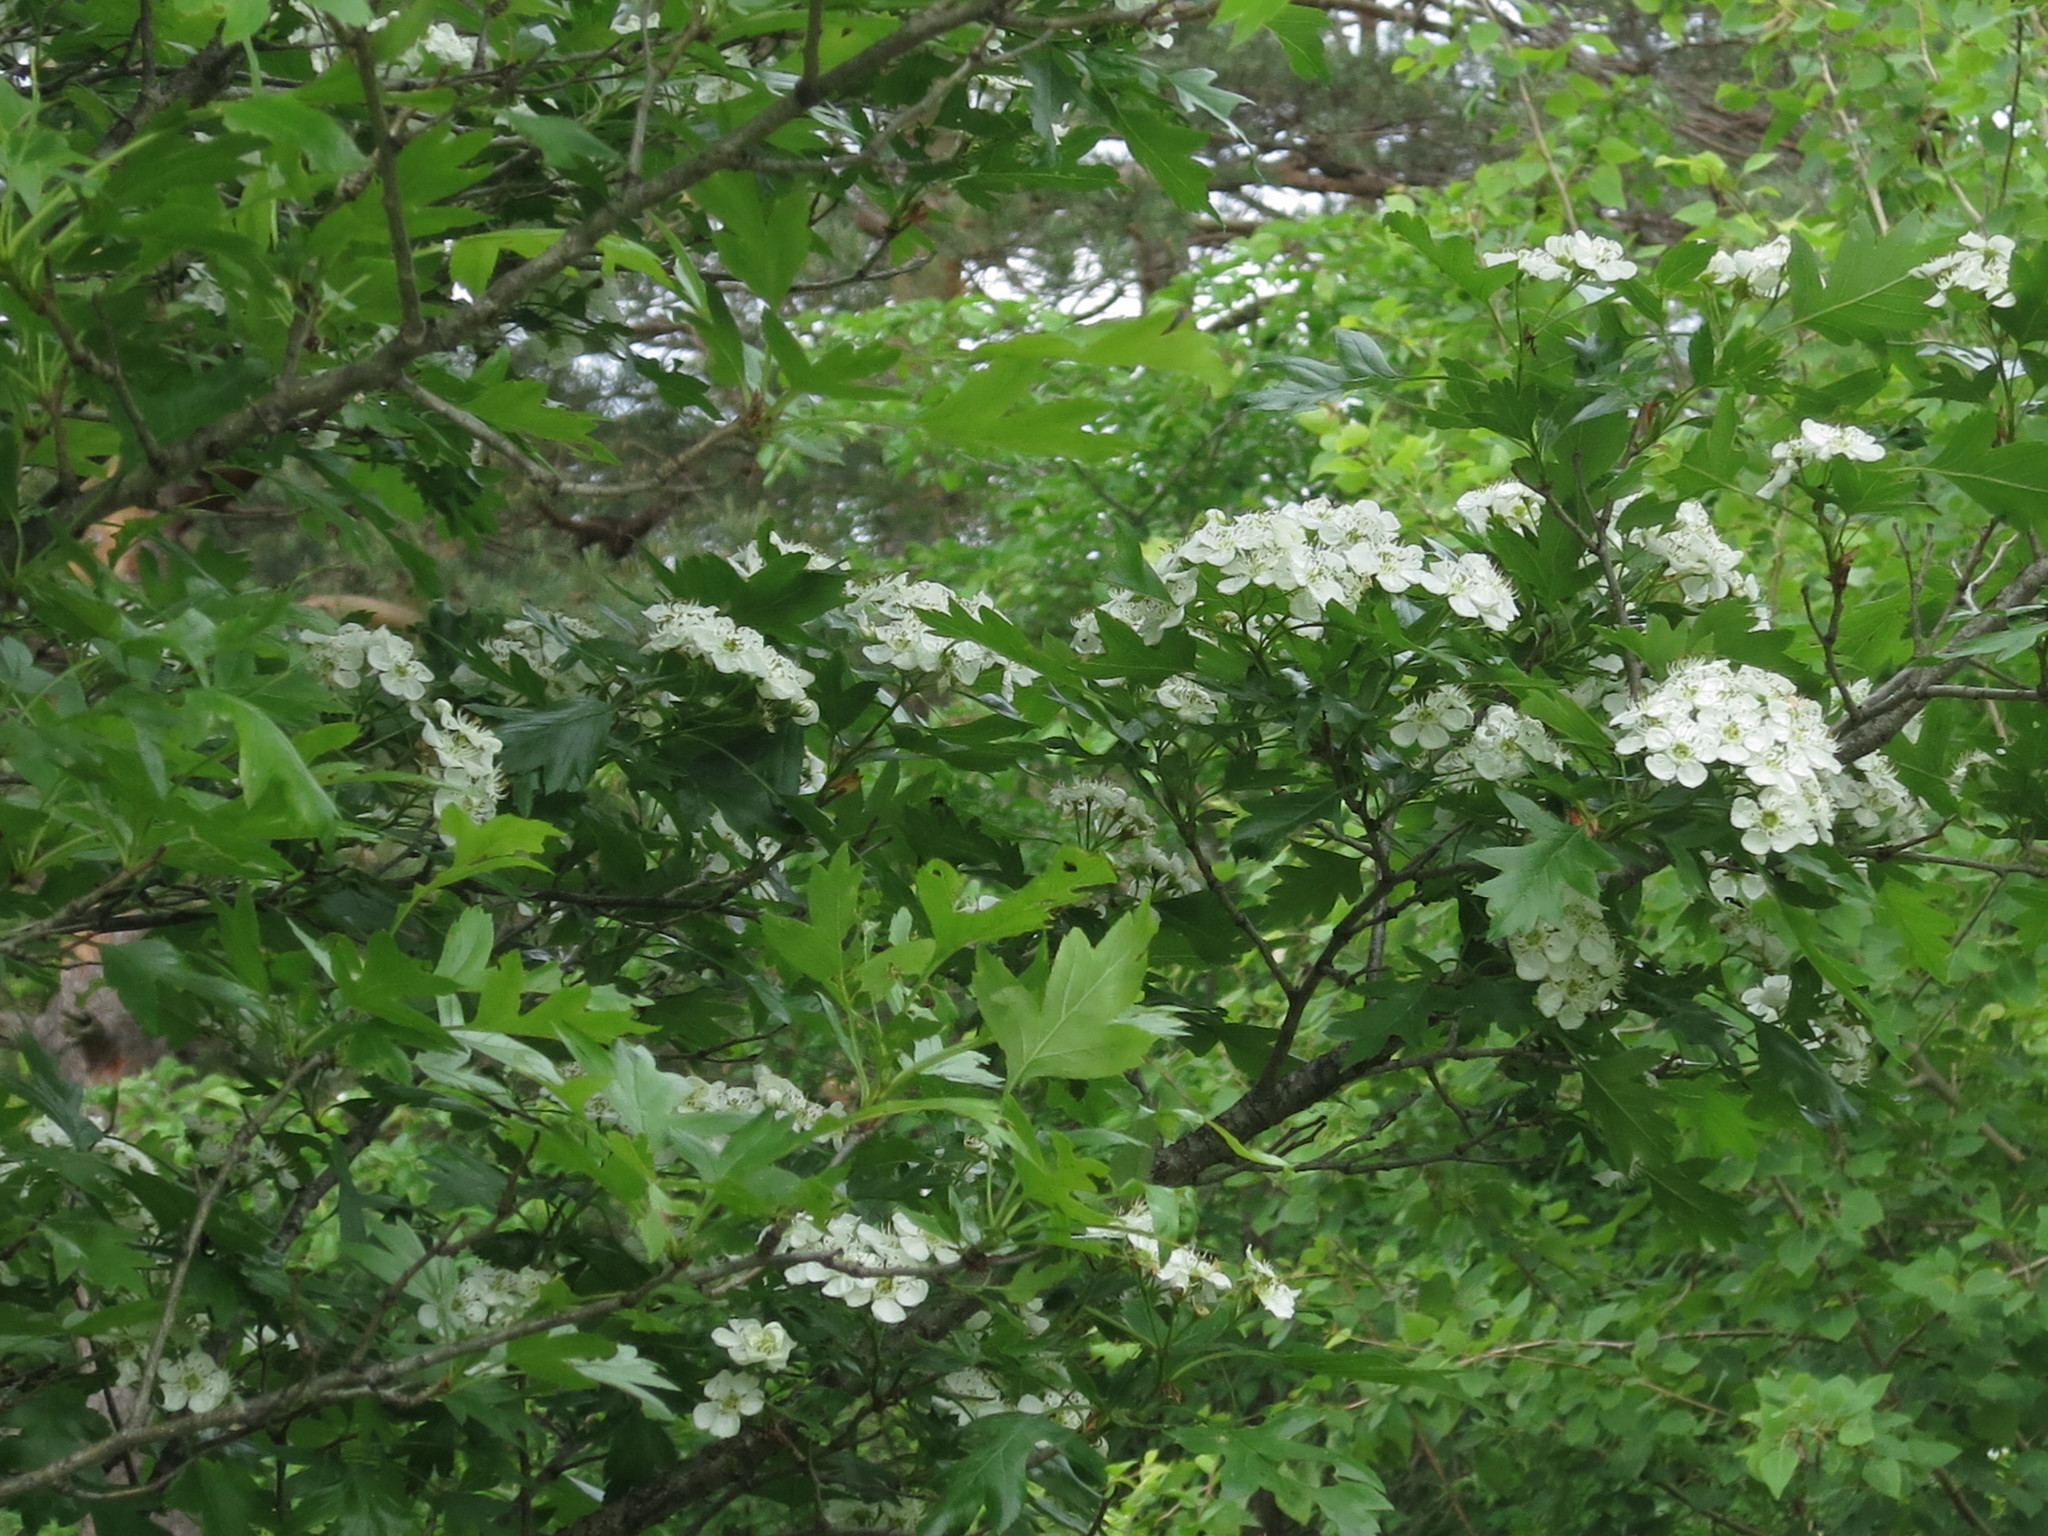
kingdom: Plantae
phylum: Tracheophyta
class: Magnoliopsida
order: Rosales
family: Rosaceae
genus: Crataegus
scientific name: Crataegus pinnatifida
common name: Chinese haw
